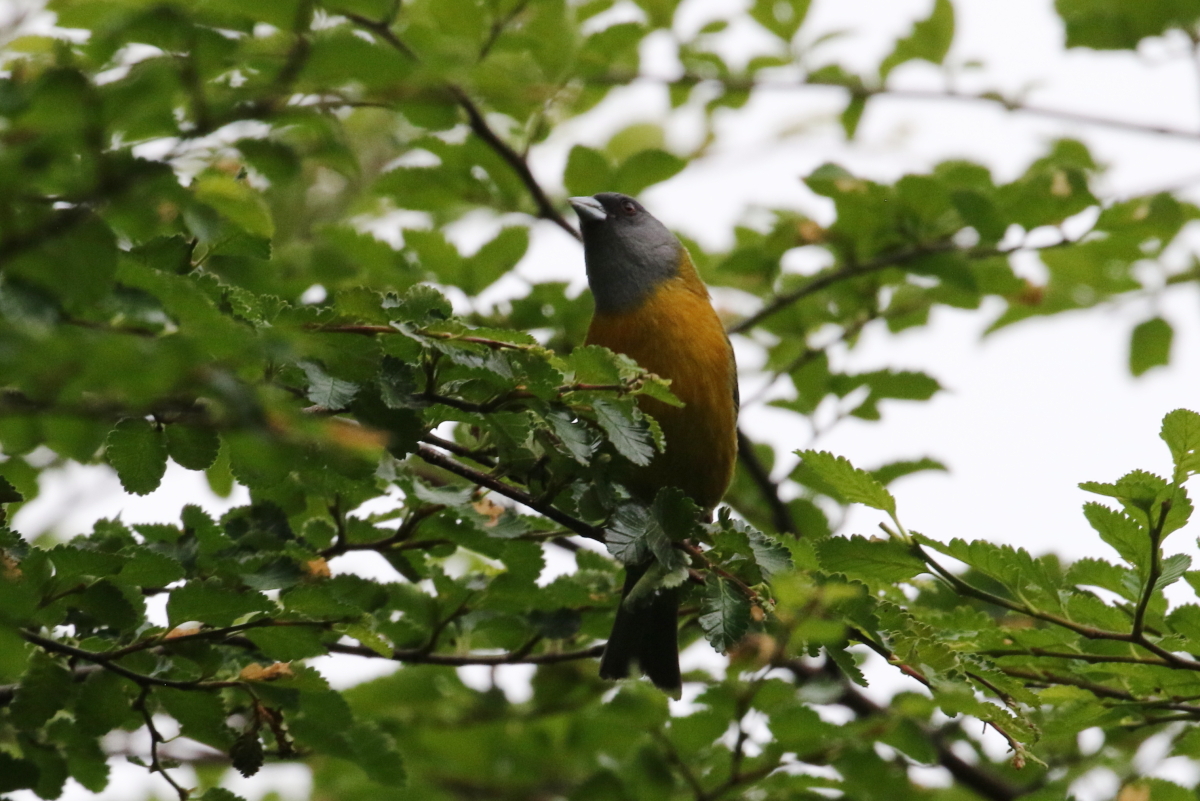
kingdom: Animalia
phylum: Chordata
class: Aves
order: Passeriformes
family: Thraupidae
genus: Phrygilus
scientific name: Phrygilus patagonicus
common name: Patagonian sierra finch
